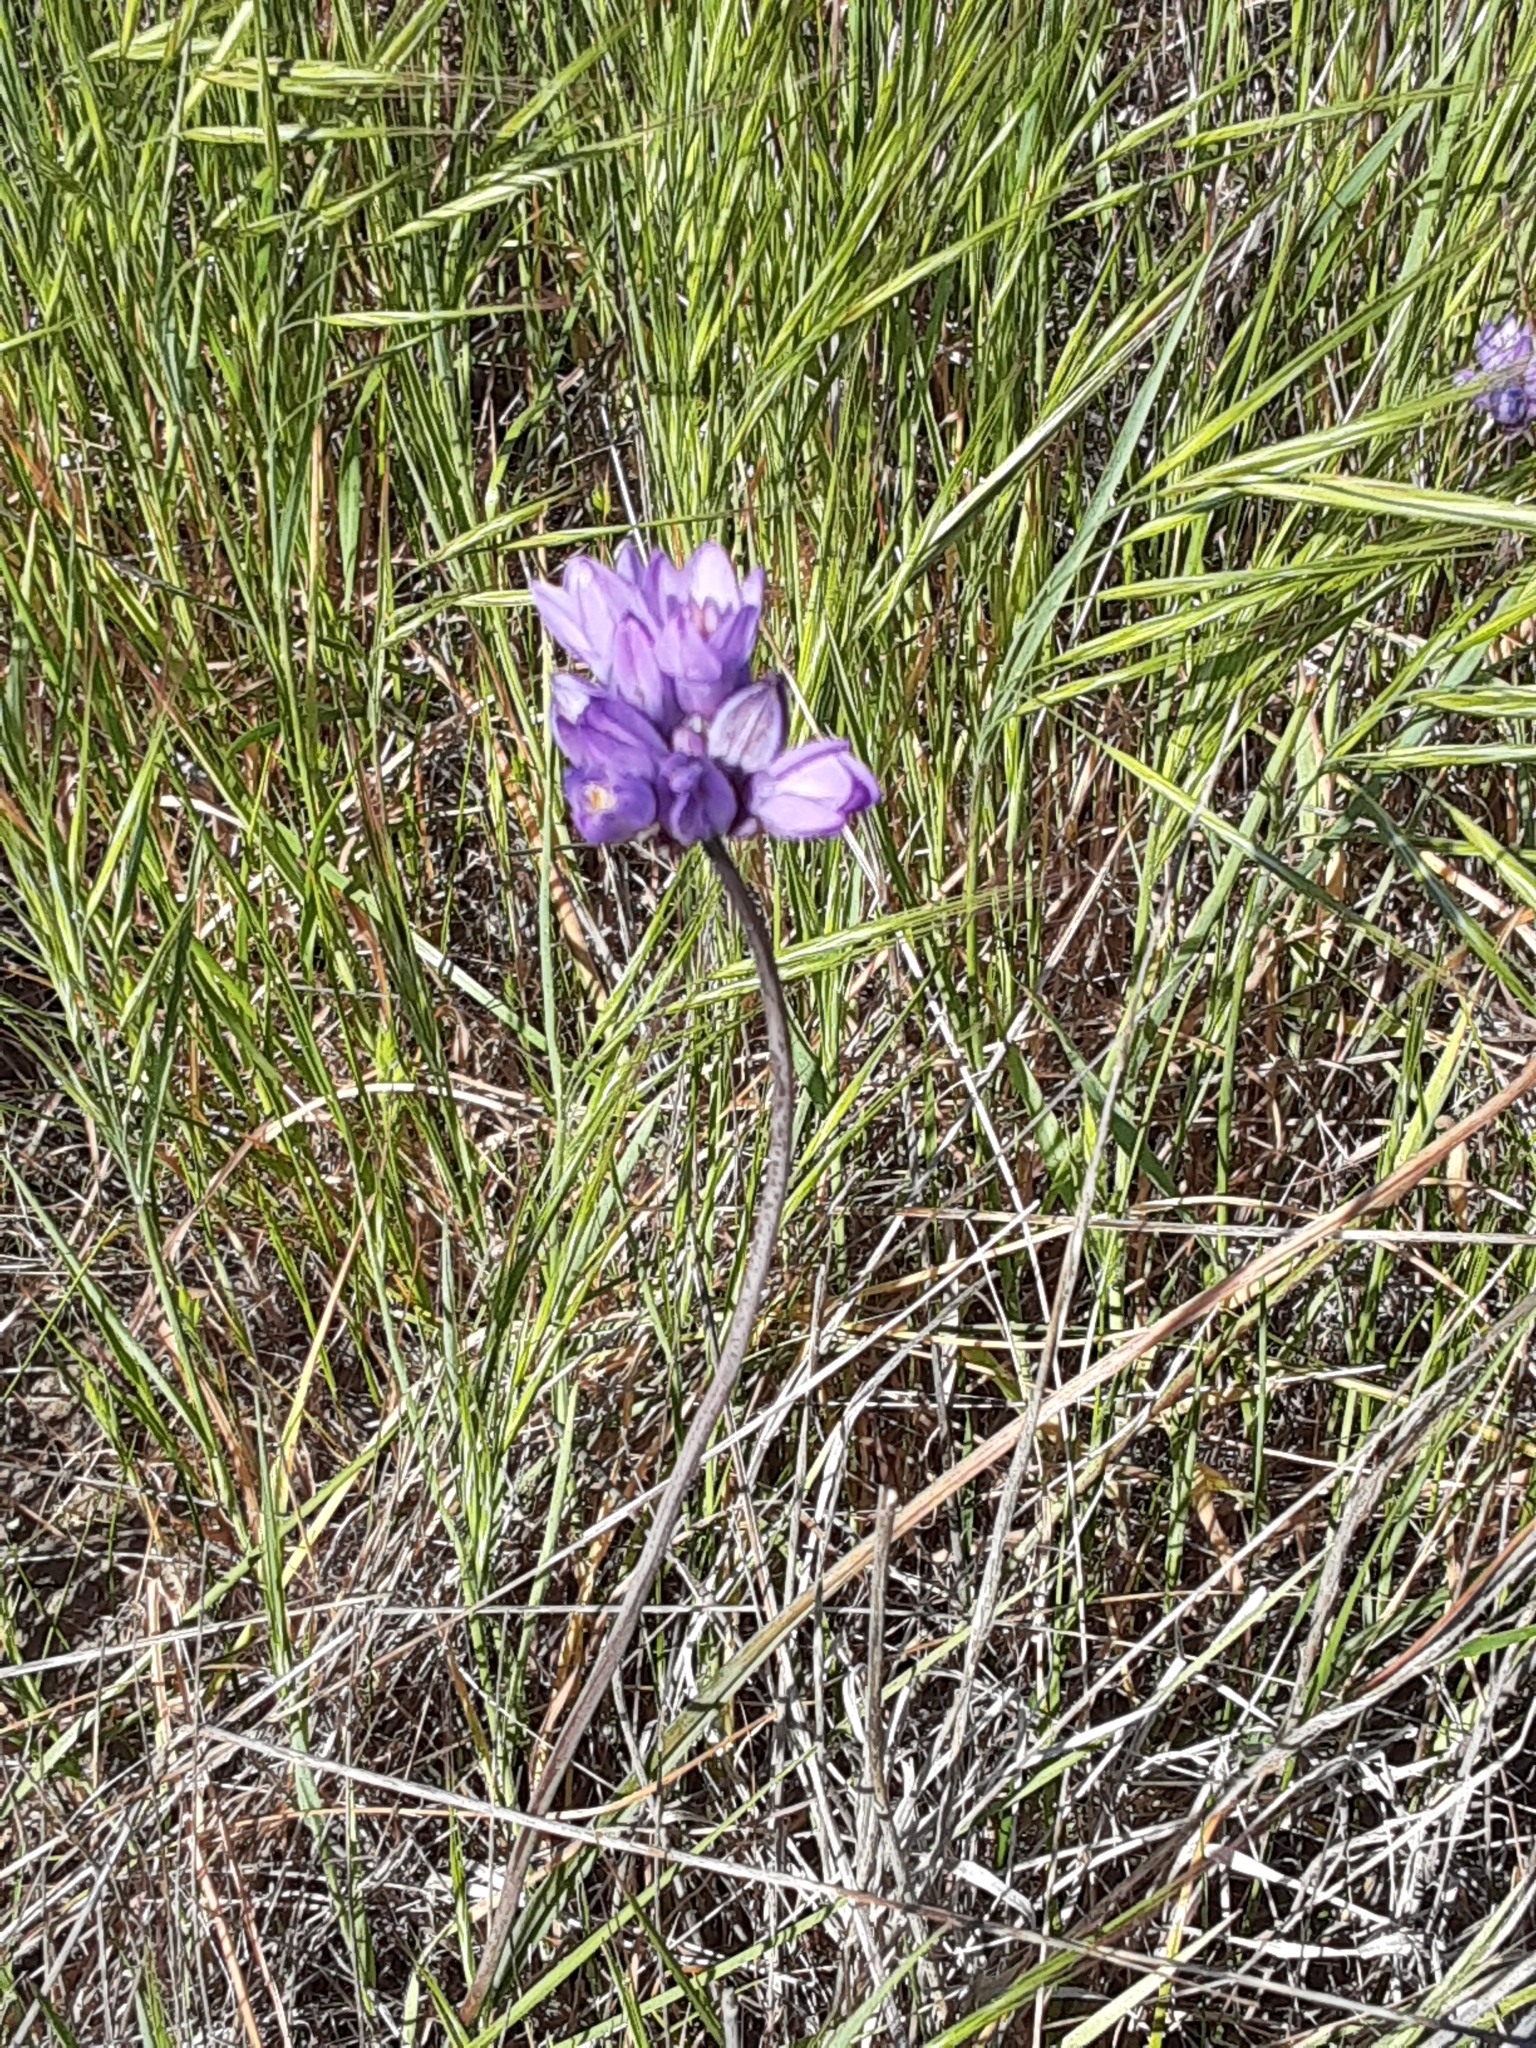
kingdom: Plantae
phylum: Tracheophyta
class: Liliopsida
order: Asparagales
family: Asparagaceae
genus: Dipterostemon
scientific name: Dipterostemon capitatus
